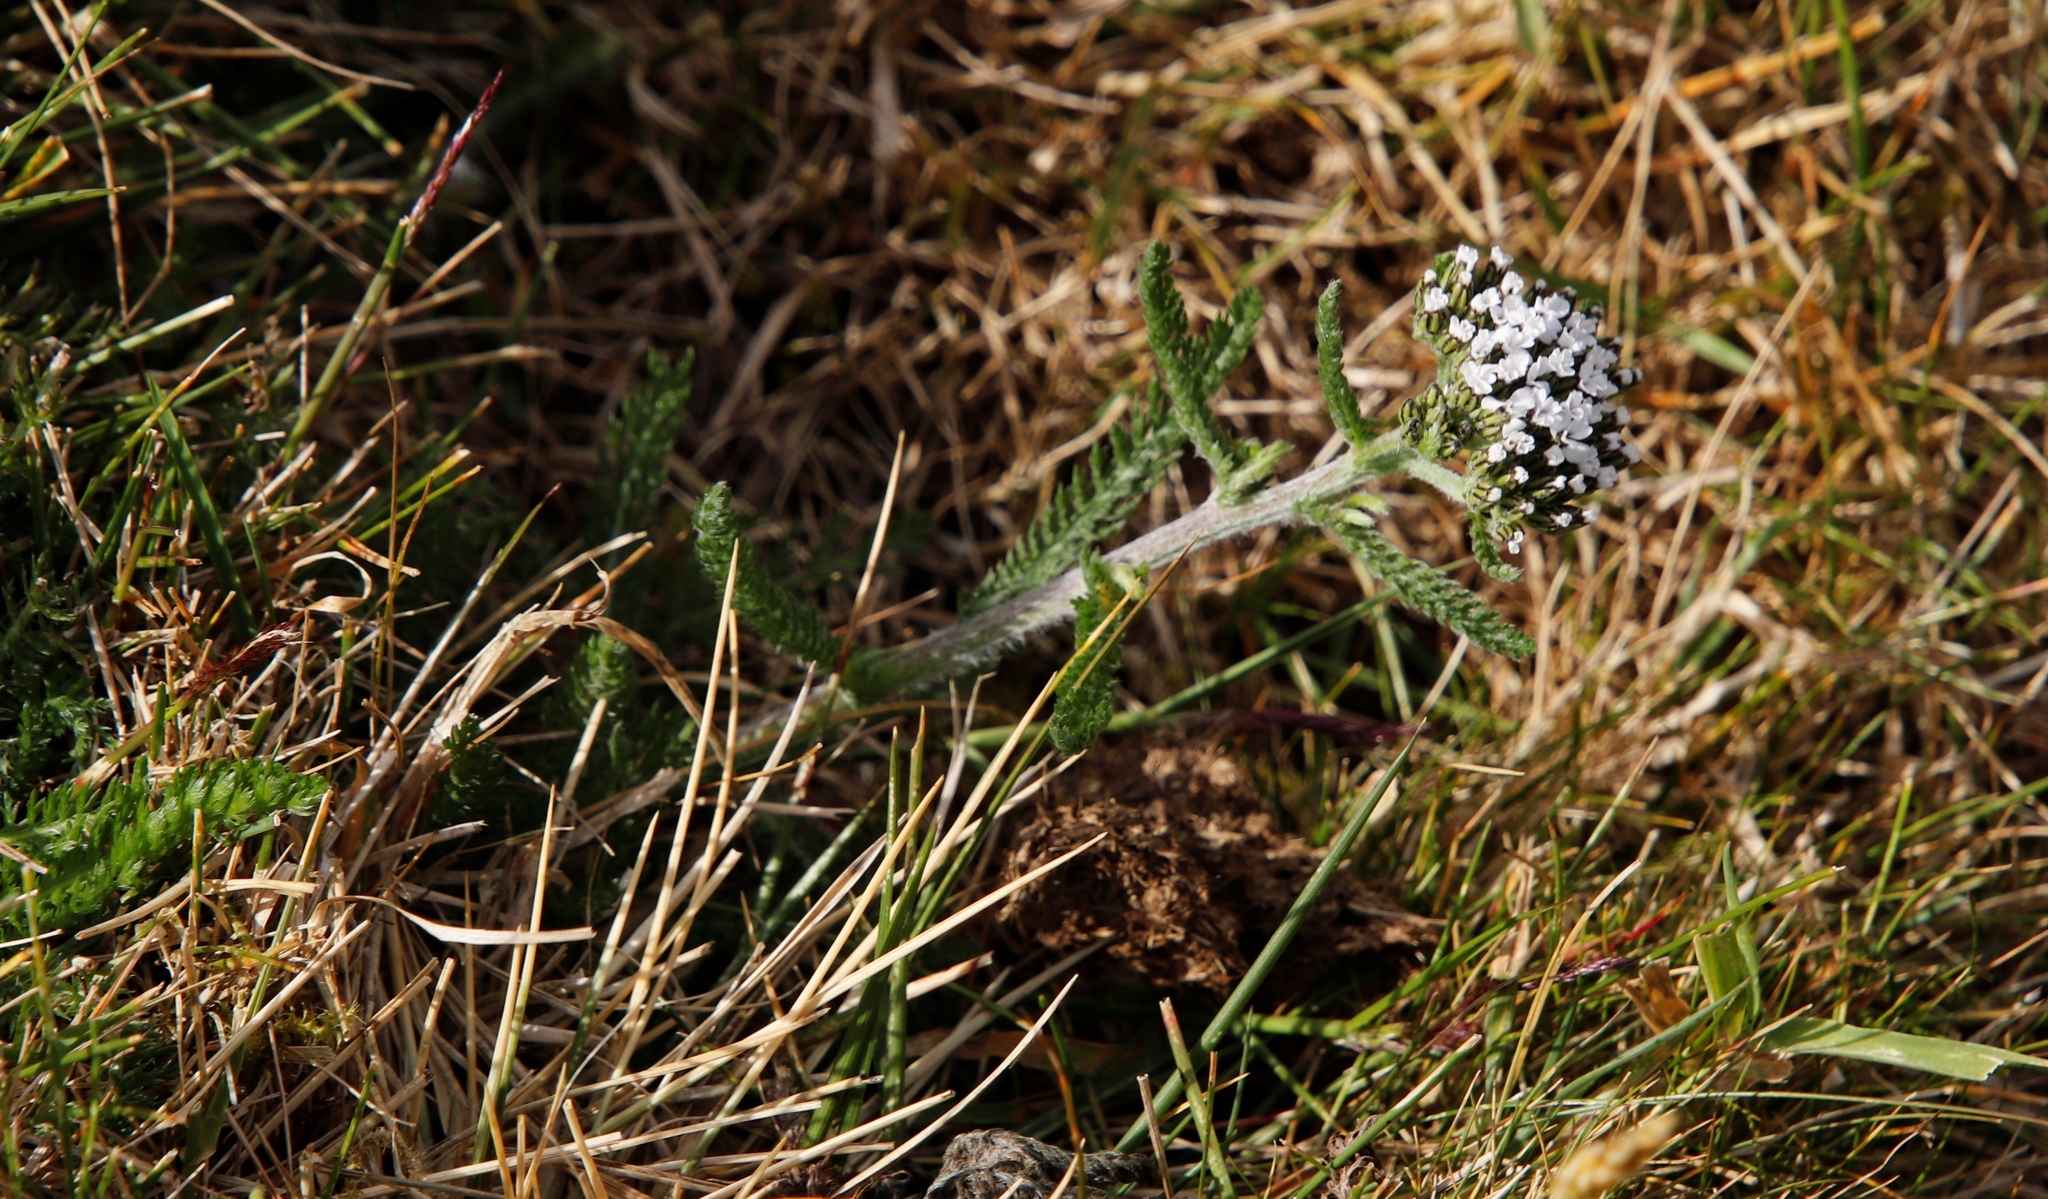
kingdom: Plantae
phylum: Tracheophyta
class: Magnoliopsida
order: Asterales
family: Asteraceae
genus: Achillea
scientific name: Achillea millefolium
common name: Yarrow
